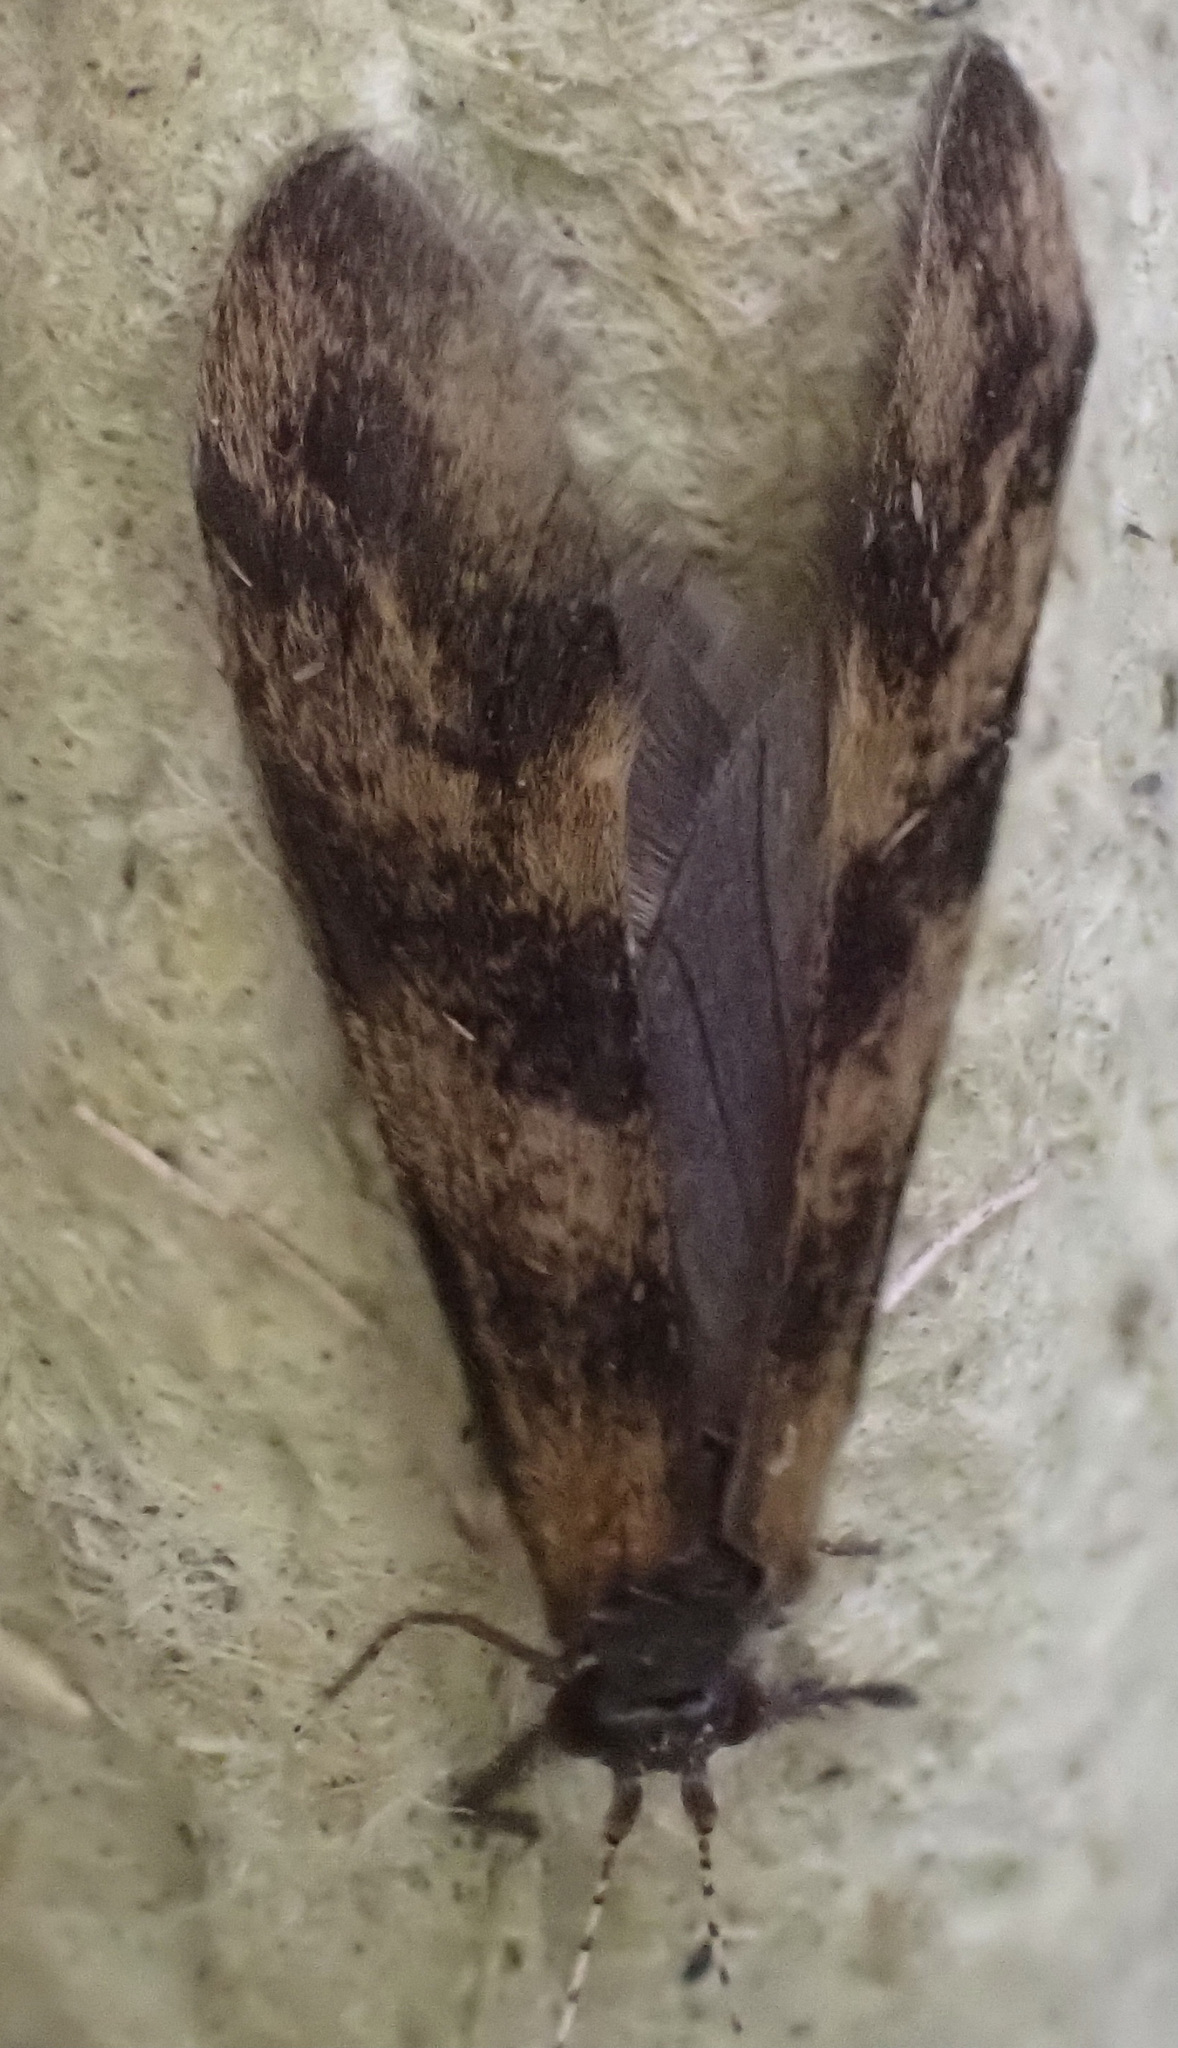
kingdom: Animalia
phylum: Arthropoda
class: Insecta
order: Trichoptera
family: Leptoceridae
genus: Mystacides
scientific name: Mystacides longicornis
